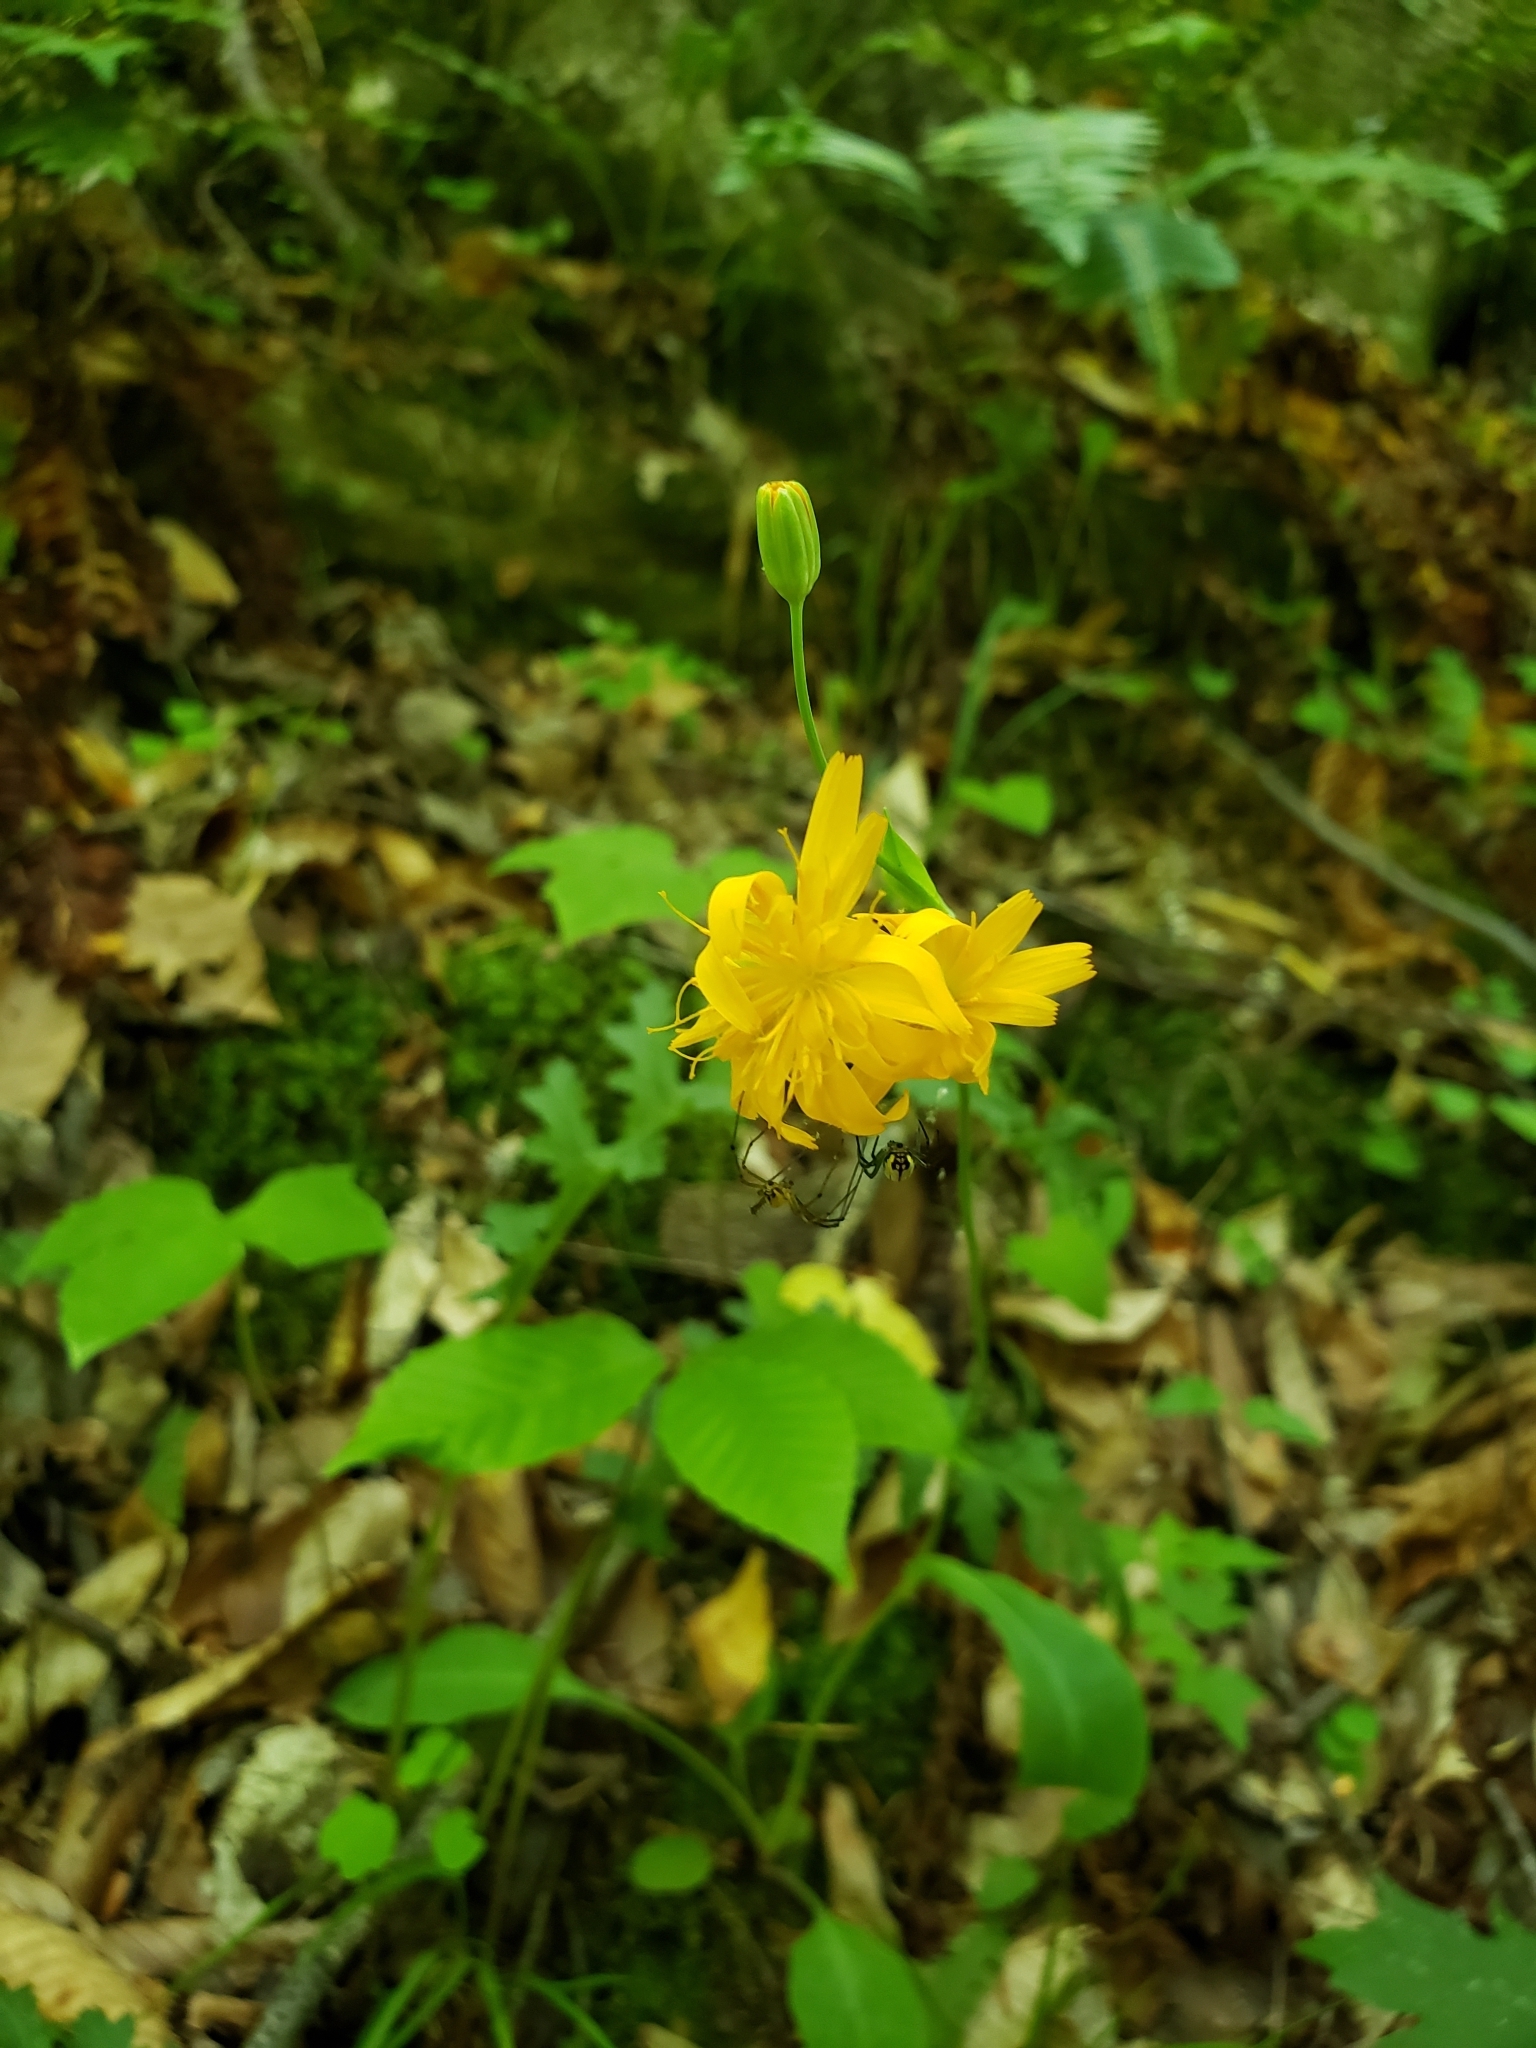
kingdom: Plantae
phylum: Tracheophyta
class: Magnoliopsida
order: Asterales
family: Asteraceae
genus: Krigia
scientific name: Krigia biflora
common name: Orange dwarf-dandelion
